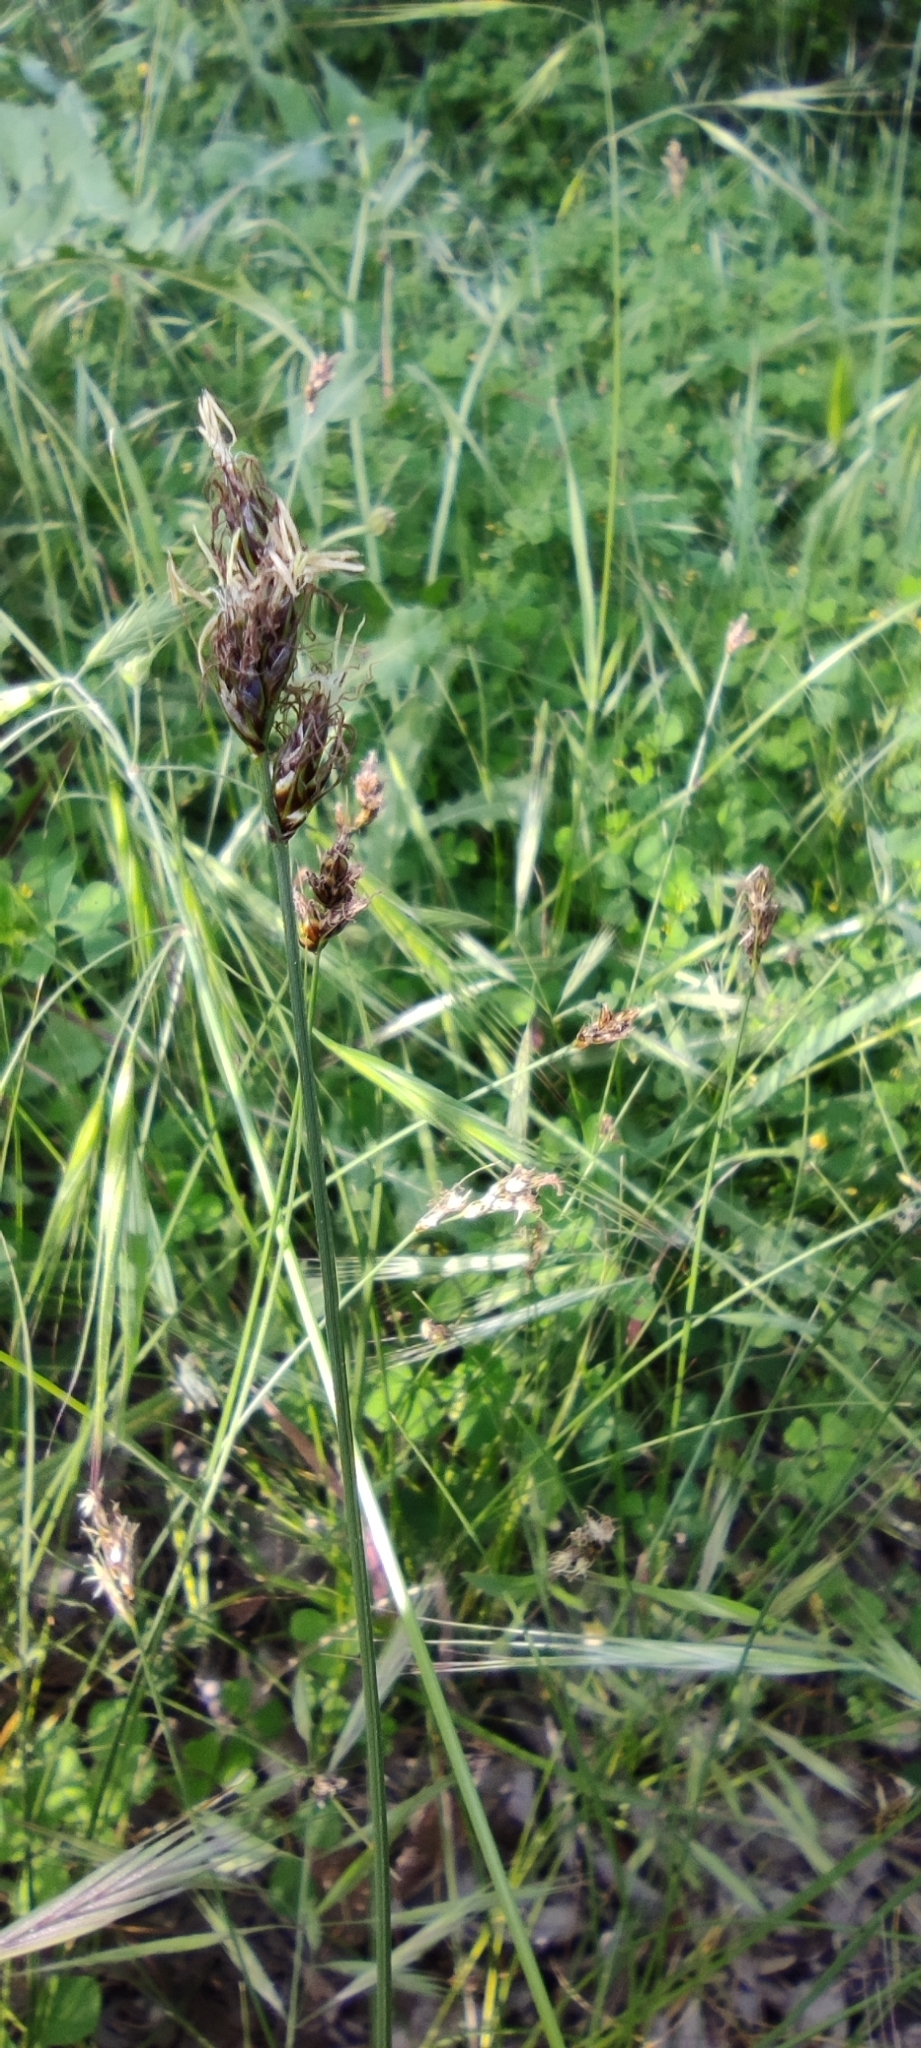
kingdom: Plantae
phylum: Tracheophyta
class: Liliopsida
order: Poales
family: Cyperaceae
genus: Carex
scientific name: Carex divisa
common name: Divided sedge
